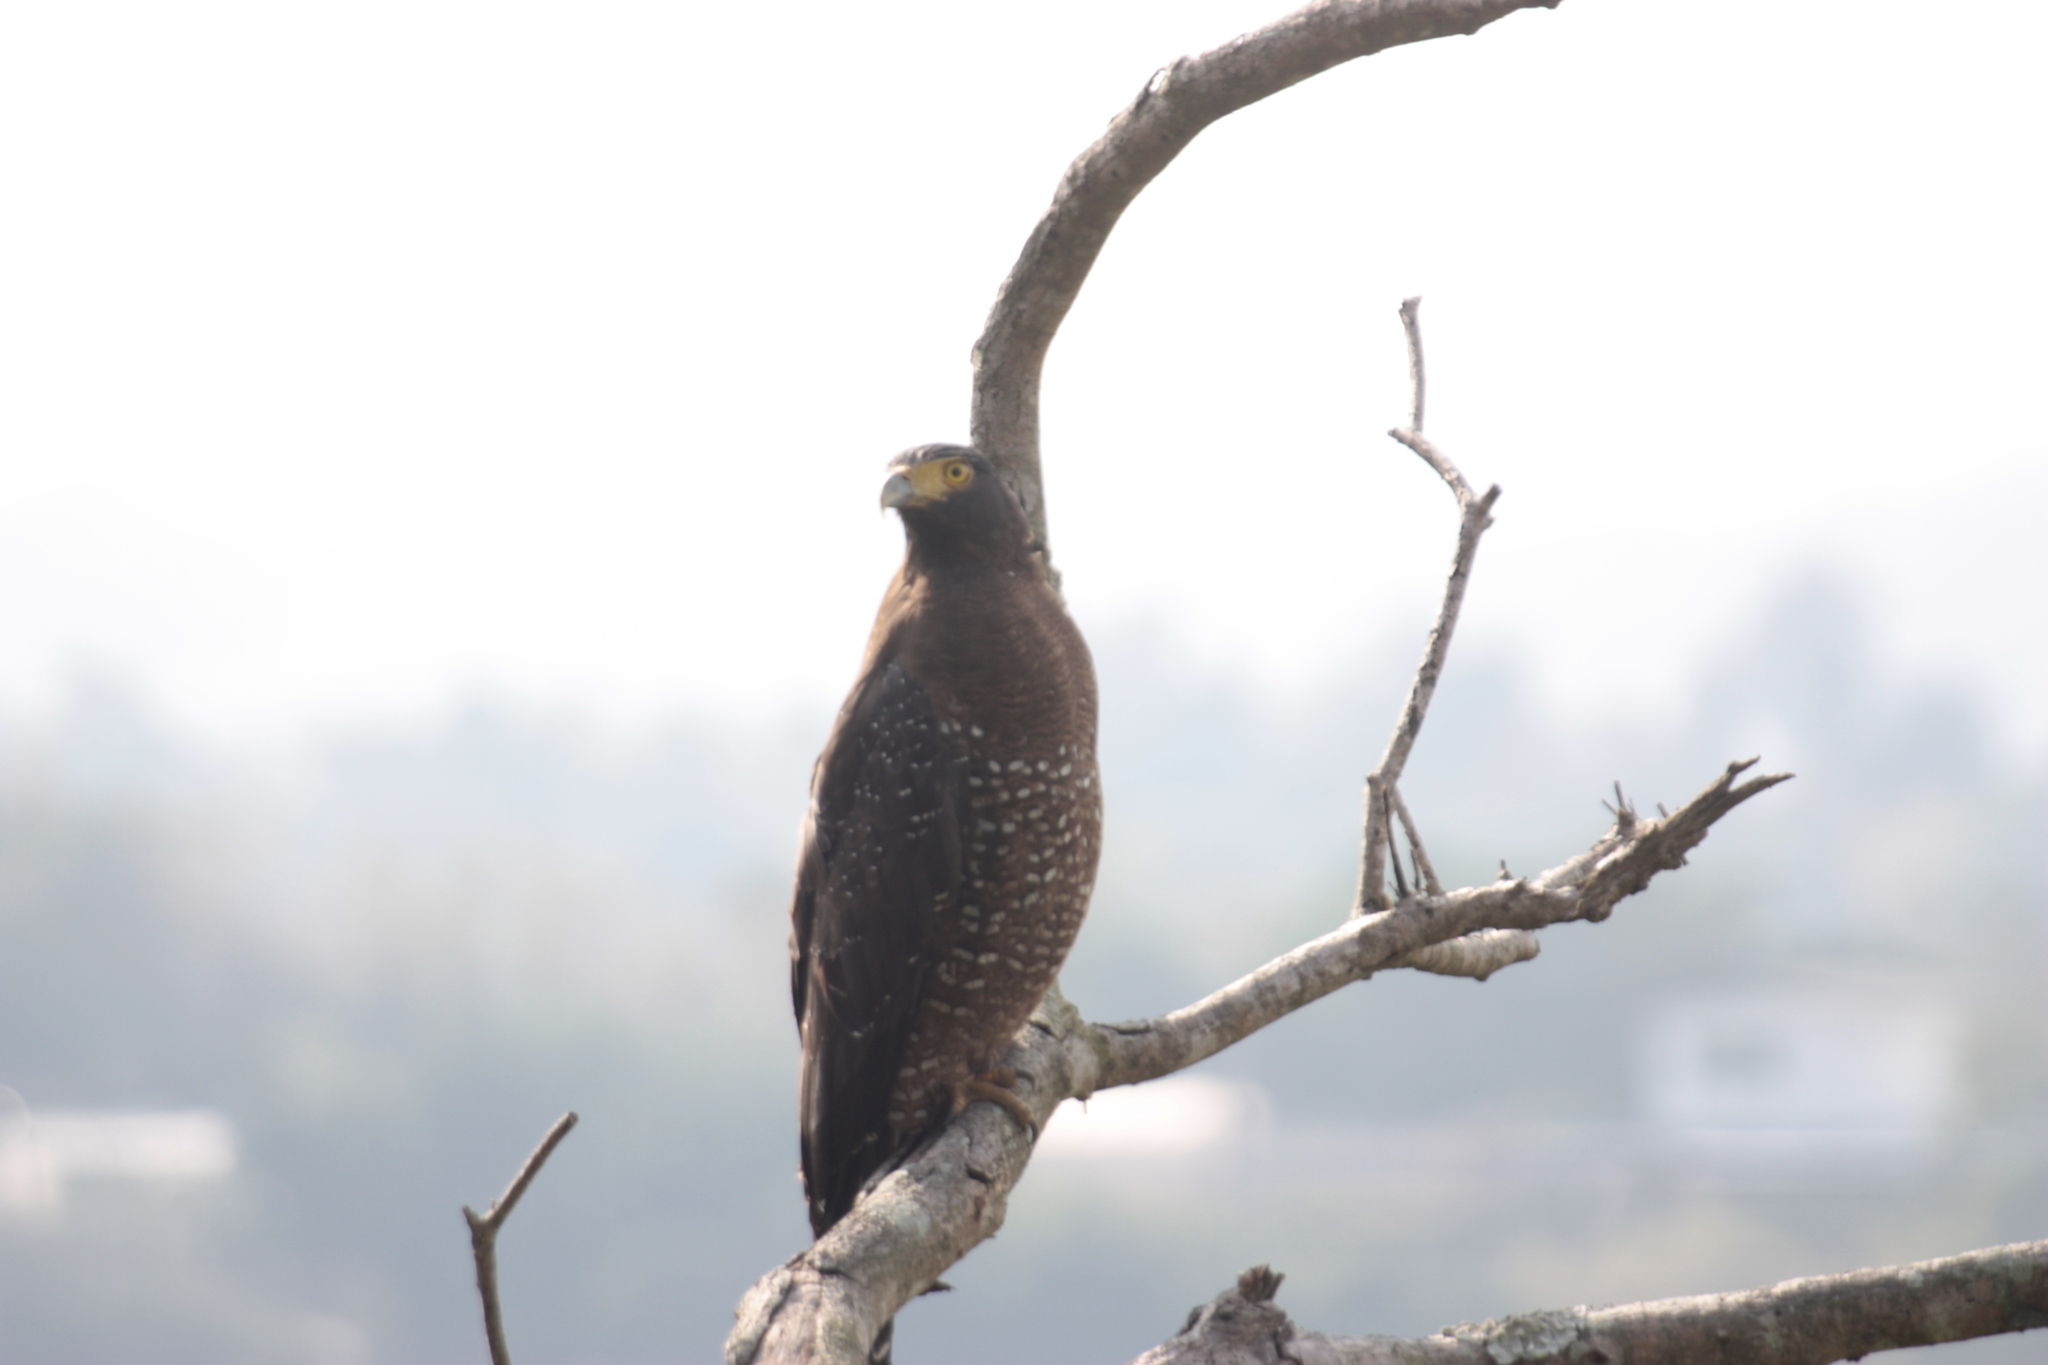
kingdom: Animalia
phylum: Chordata
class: Aves
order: Accipitriformes
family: Accipitridae
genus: Spilornis
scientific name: Spilornis cheela
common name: Crested serpent eagle
